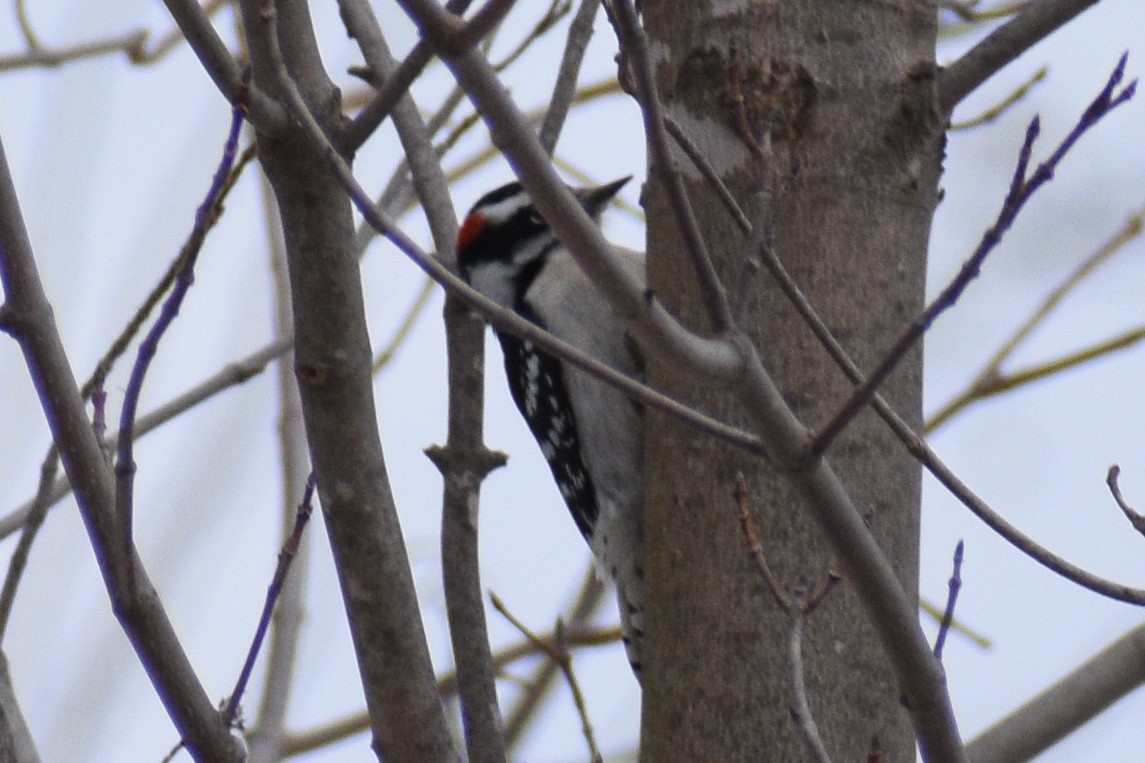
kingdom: Animalia
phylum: Chordata
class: Aves
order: Piciformes
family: Picidae
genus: Dryobates
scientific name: Dryobates pubescens
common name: Downy woodpecker
